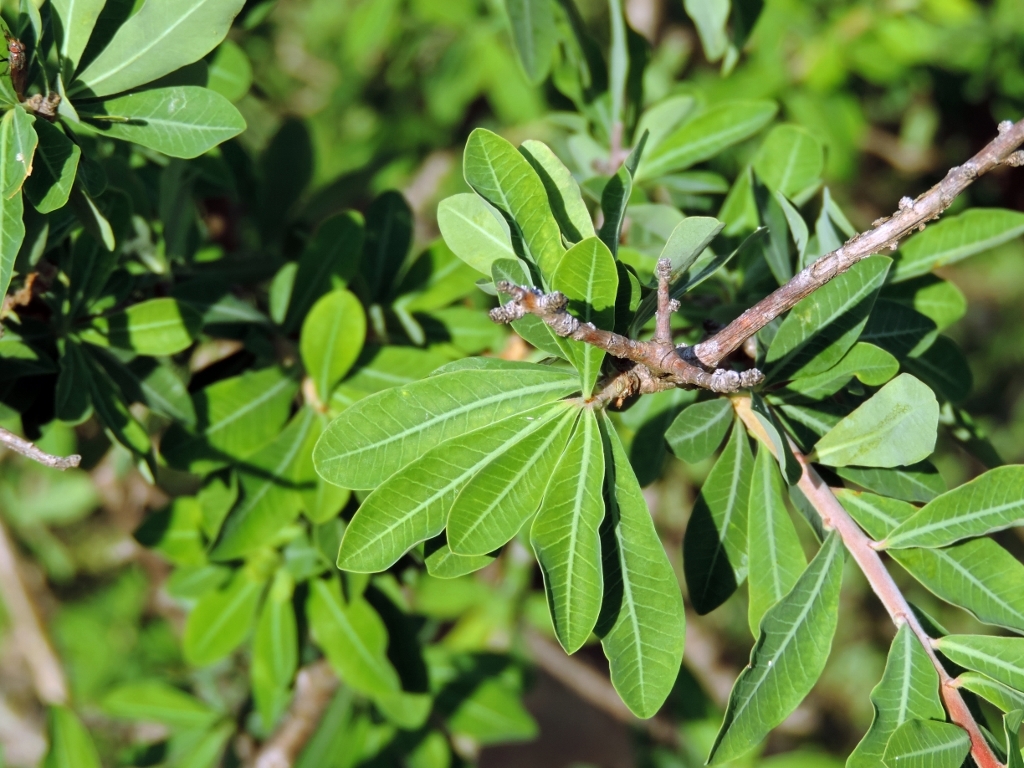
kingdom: Plantae
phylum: Tracheophyta
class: Magnoliopsida
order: Malpighiales
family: Euphorbiaceae
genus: Euphorbia
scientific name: Euphorbia matabelensis
